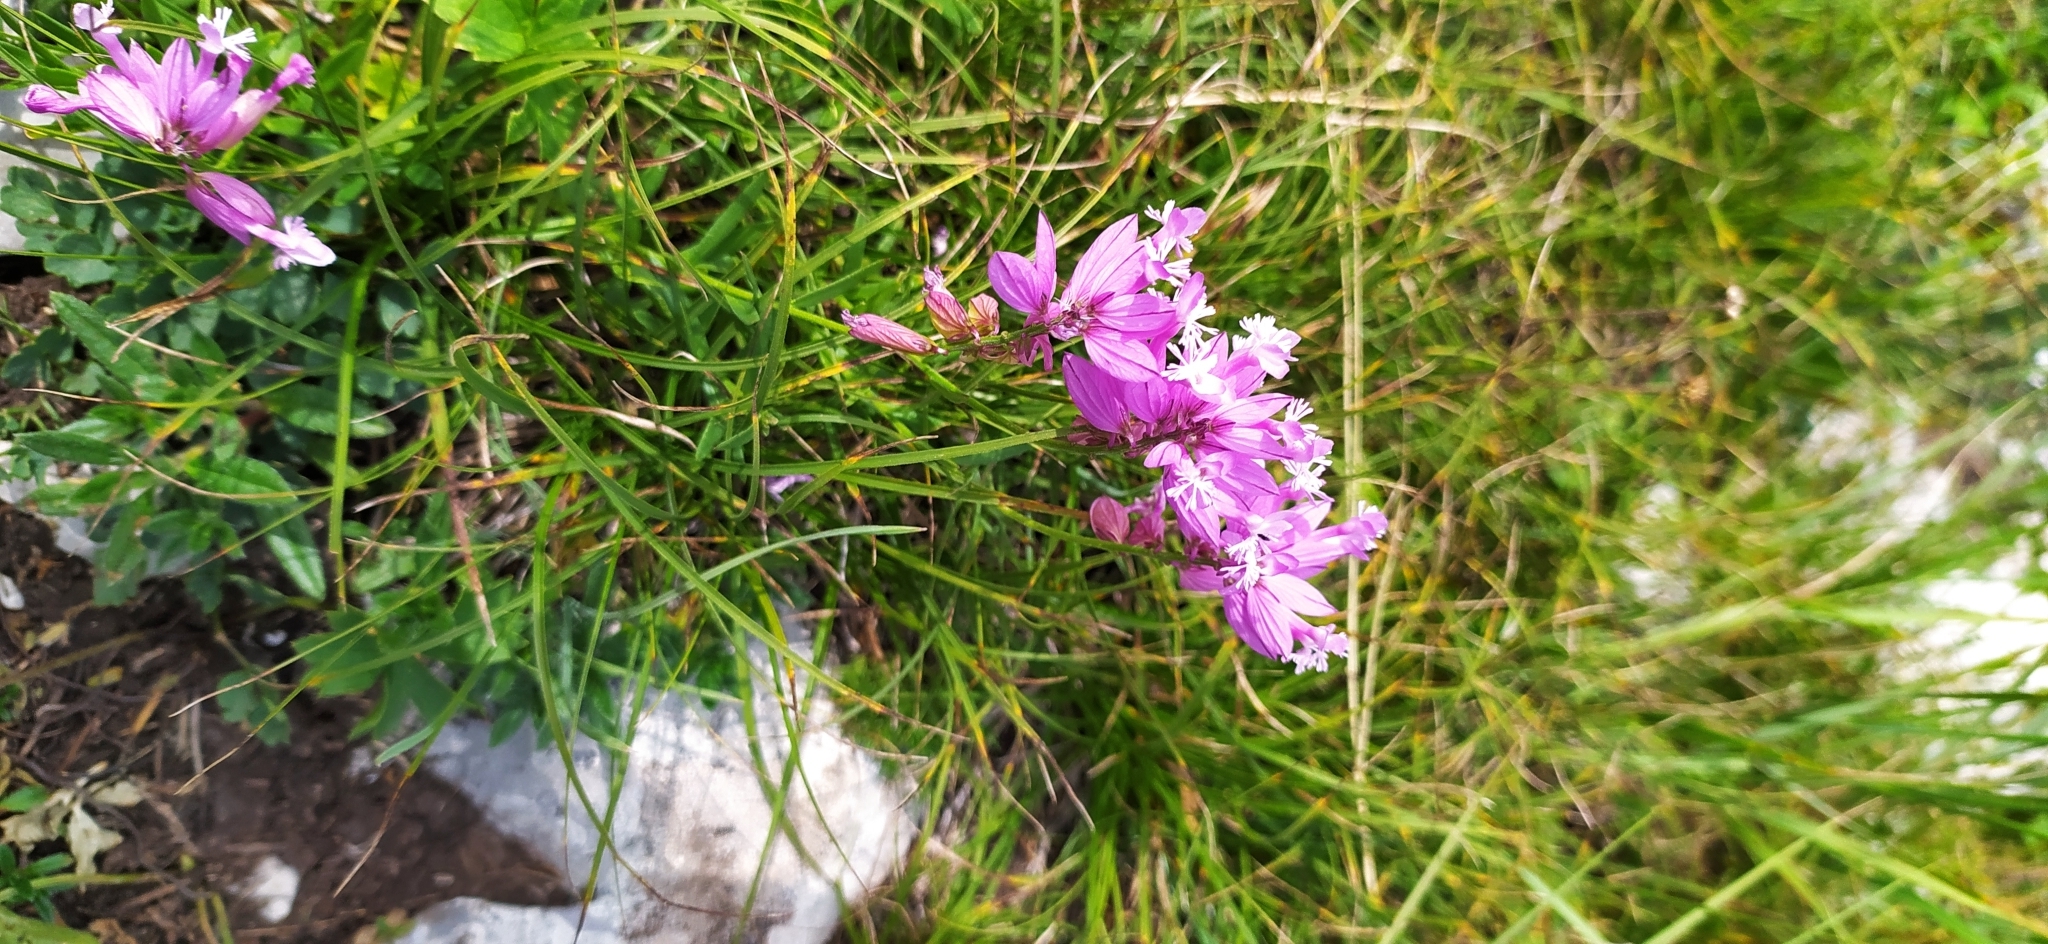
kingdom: Plantae
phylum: Tracheophyta
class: Magnoliopsida
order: Fabales
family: Polygalaceae
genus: Polygala
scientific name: Polygala major
